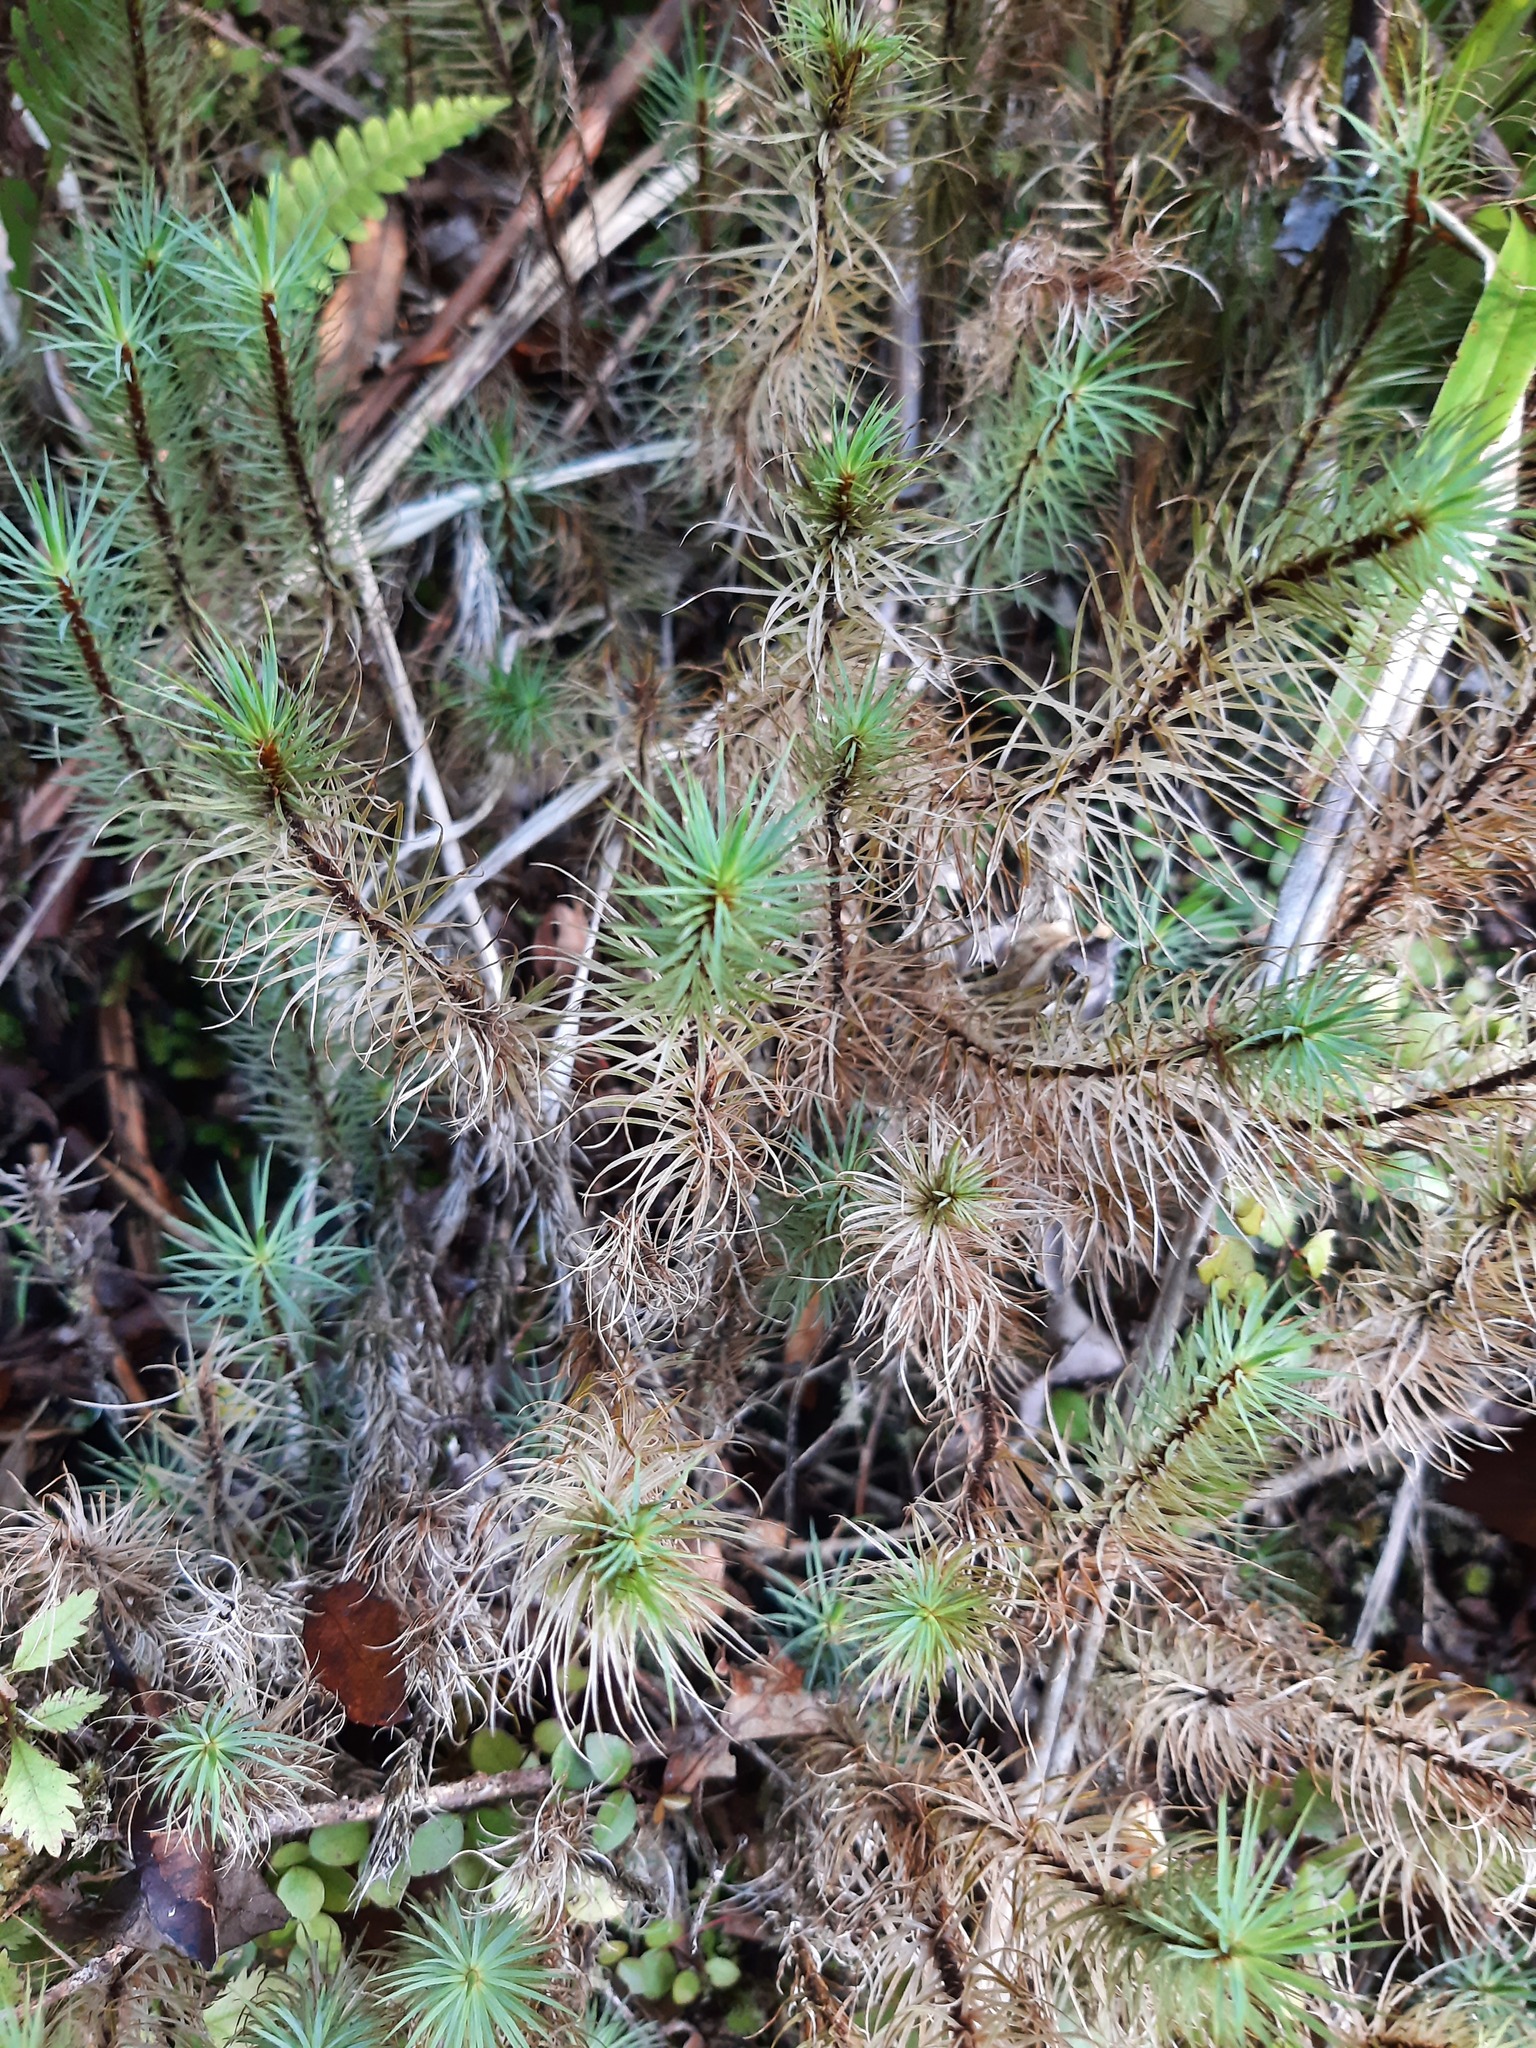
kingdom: Plantae
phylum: Bryophyta
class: Polytrichopsida
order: Polytrichales
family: Polytrichaceae
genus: Dawsonia
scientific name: Dawsonia superba
